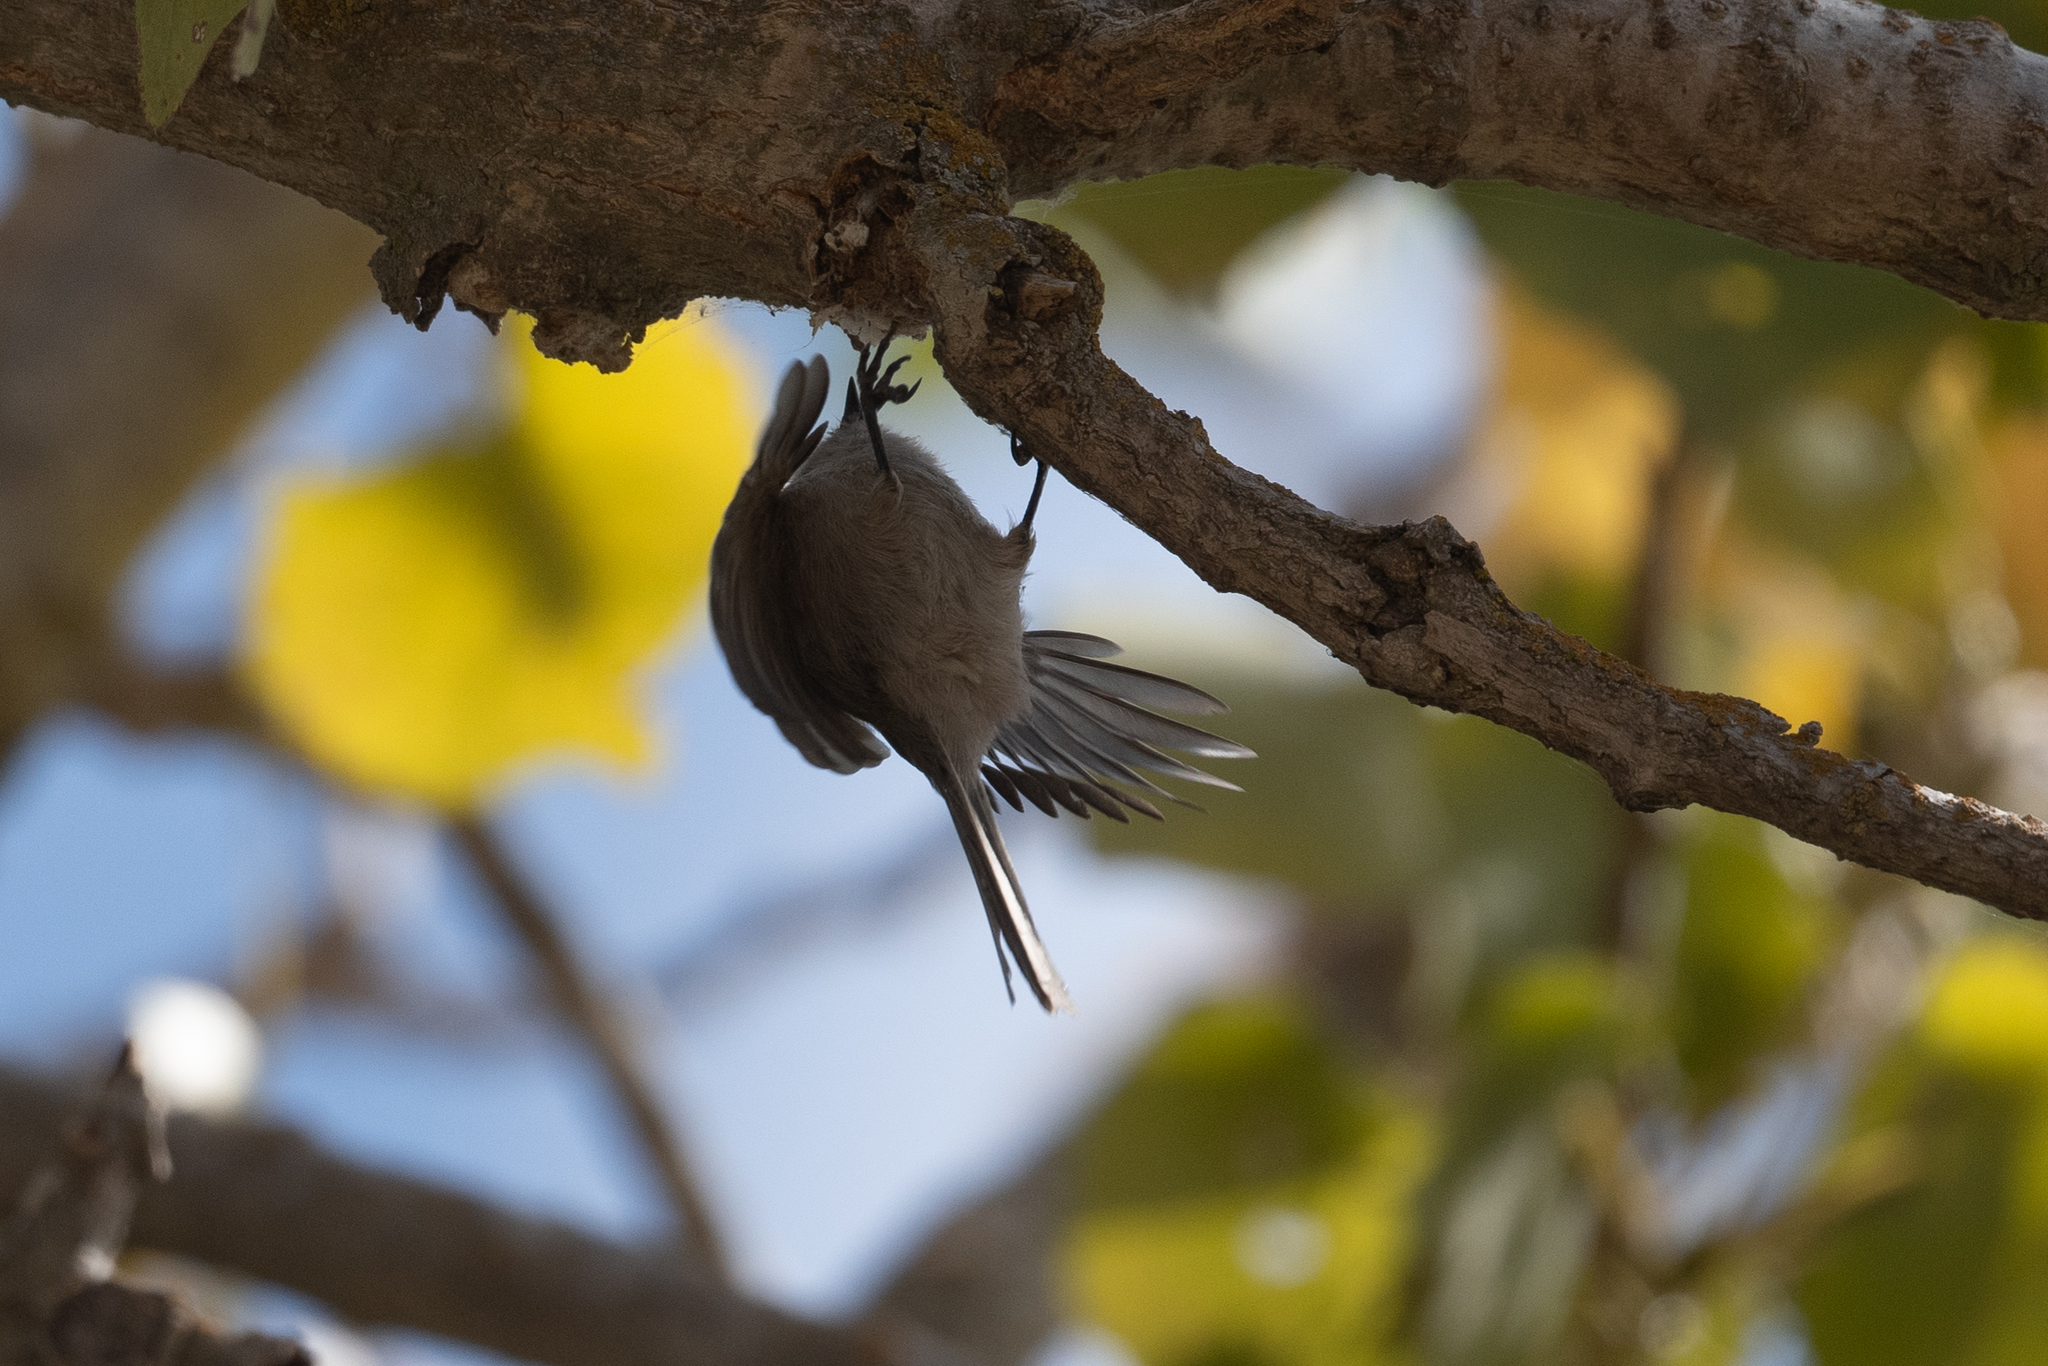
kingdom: Animalia
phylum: Chordata
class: Aves
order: Passeriformes
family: Aegithalidae
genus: Psaltriparus
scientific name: Psaltriparus minimus
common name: American bushtit
